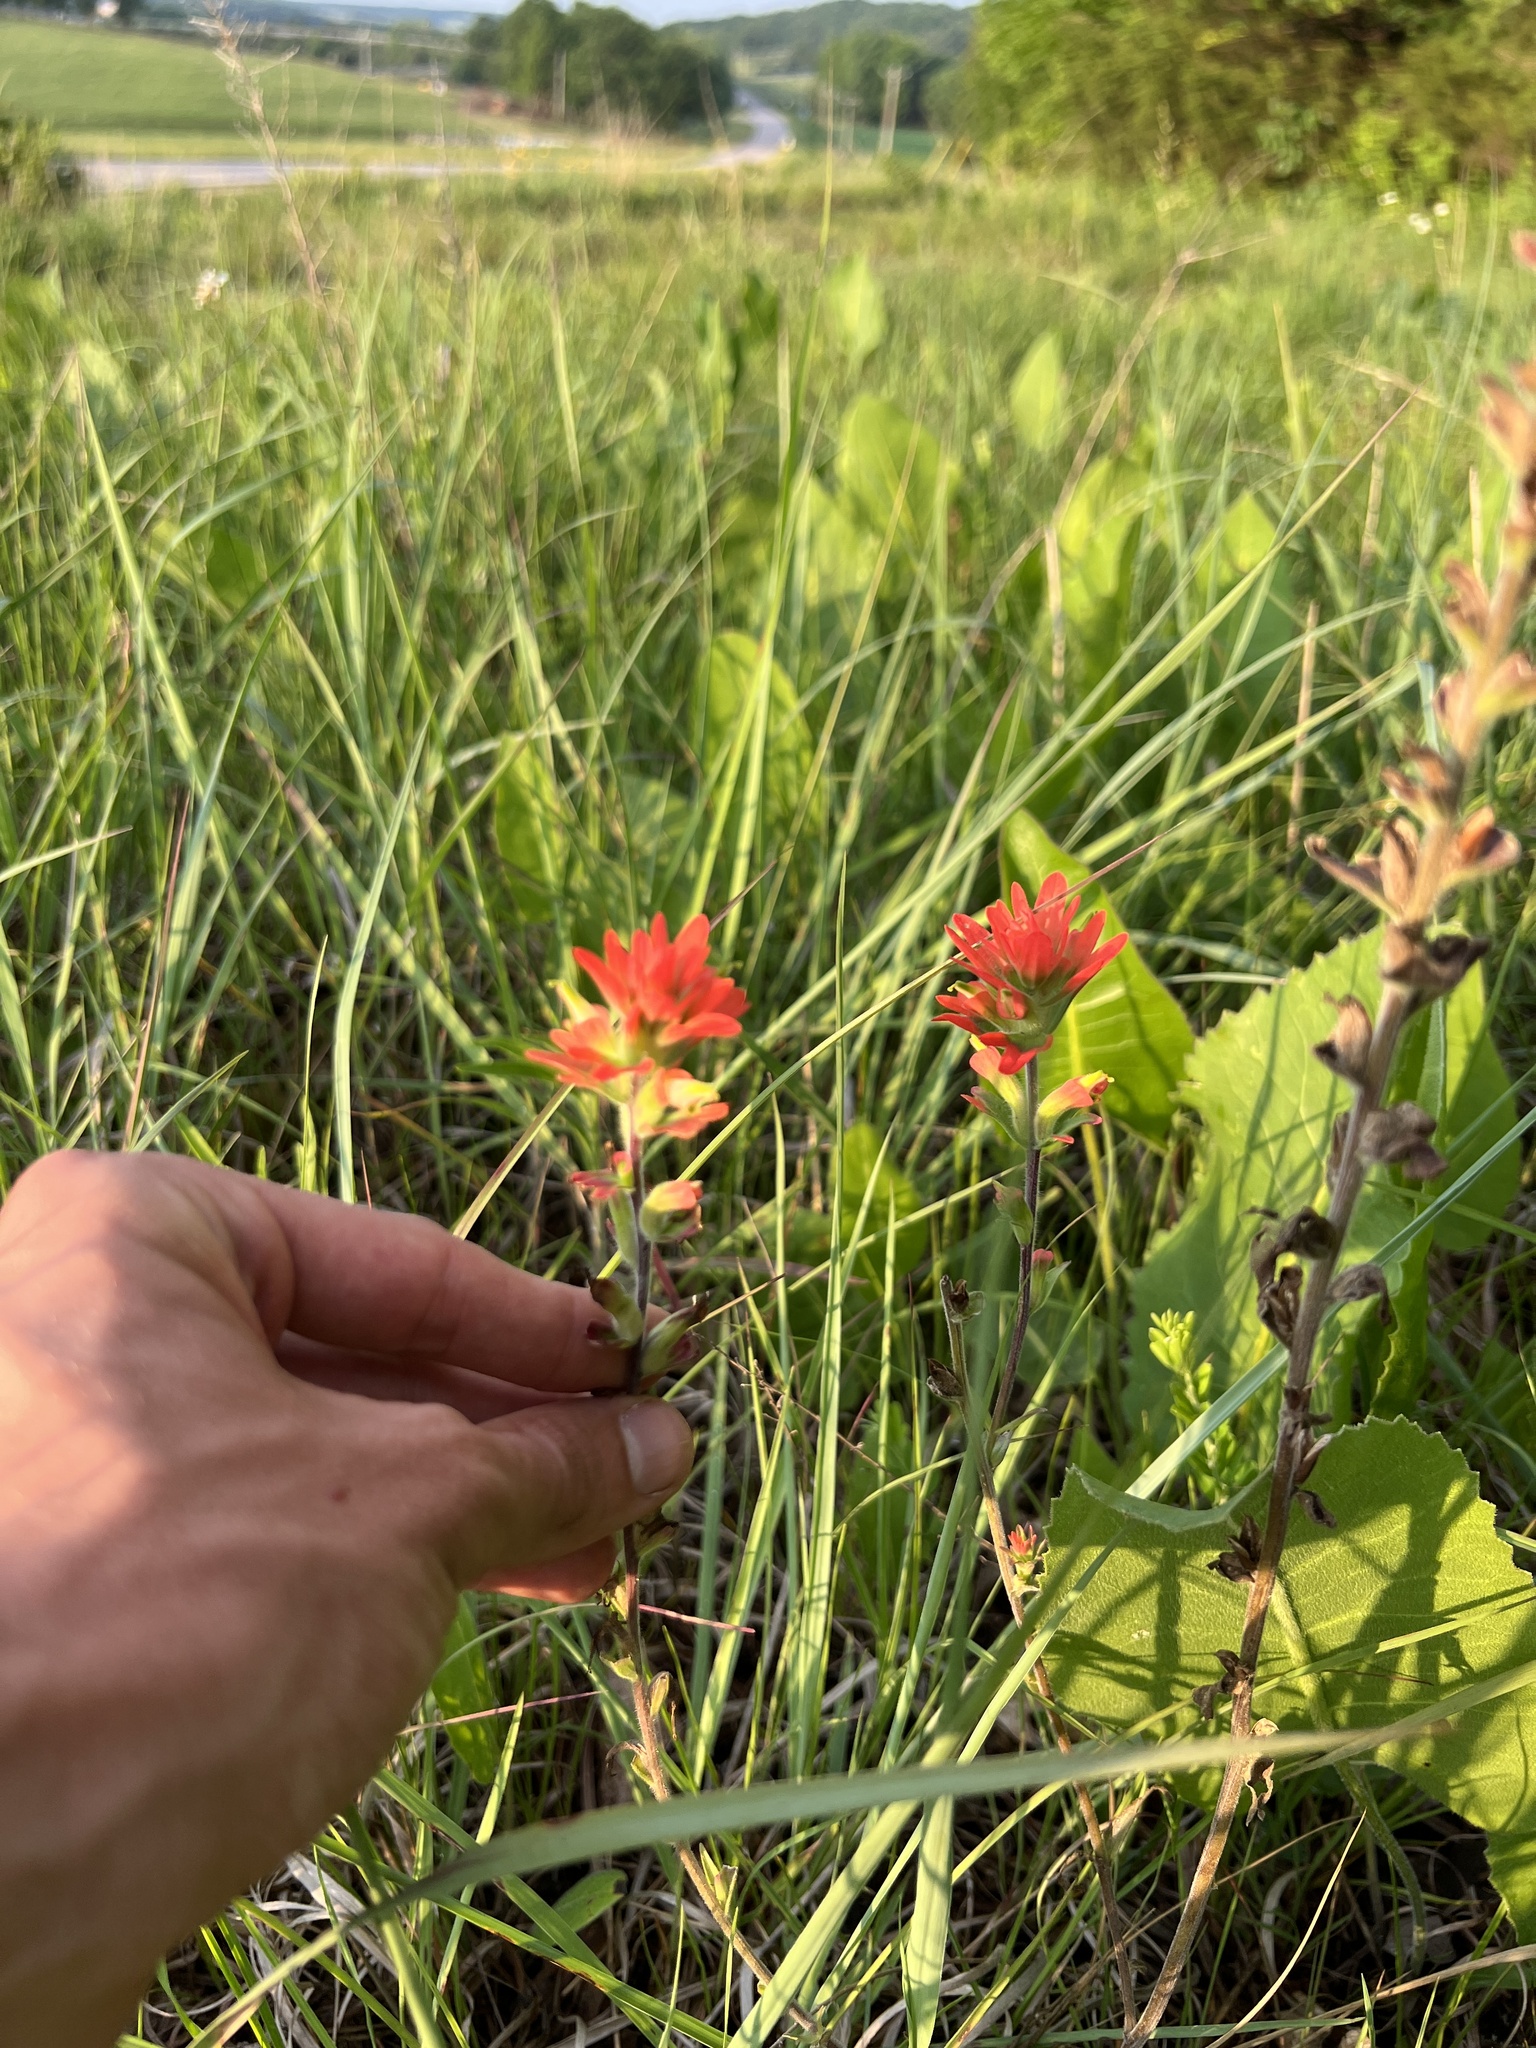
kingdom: Plantae
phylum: Tracheophyta
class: Magnoliopsida
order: Lamiales
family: Orobanchaceae
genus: Castilleja
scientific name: Castilleja coccinea
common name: Scarlet paintbrush
